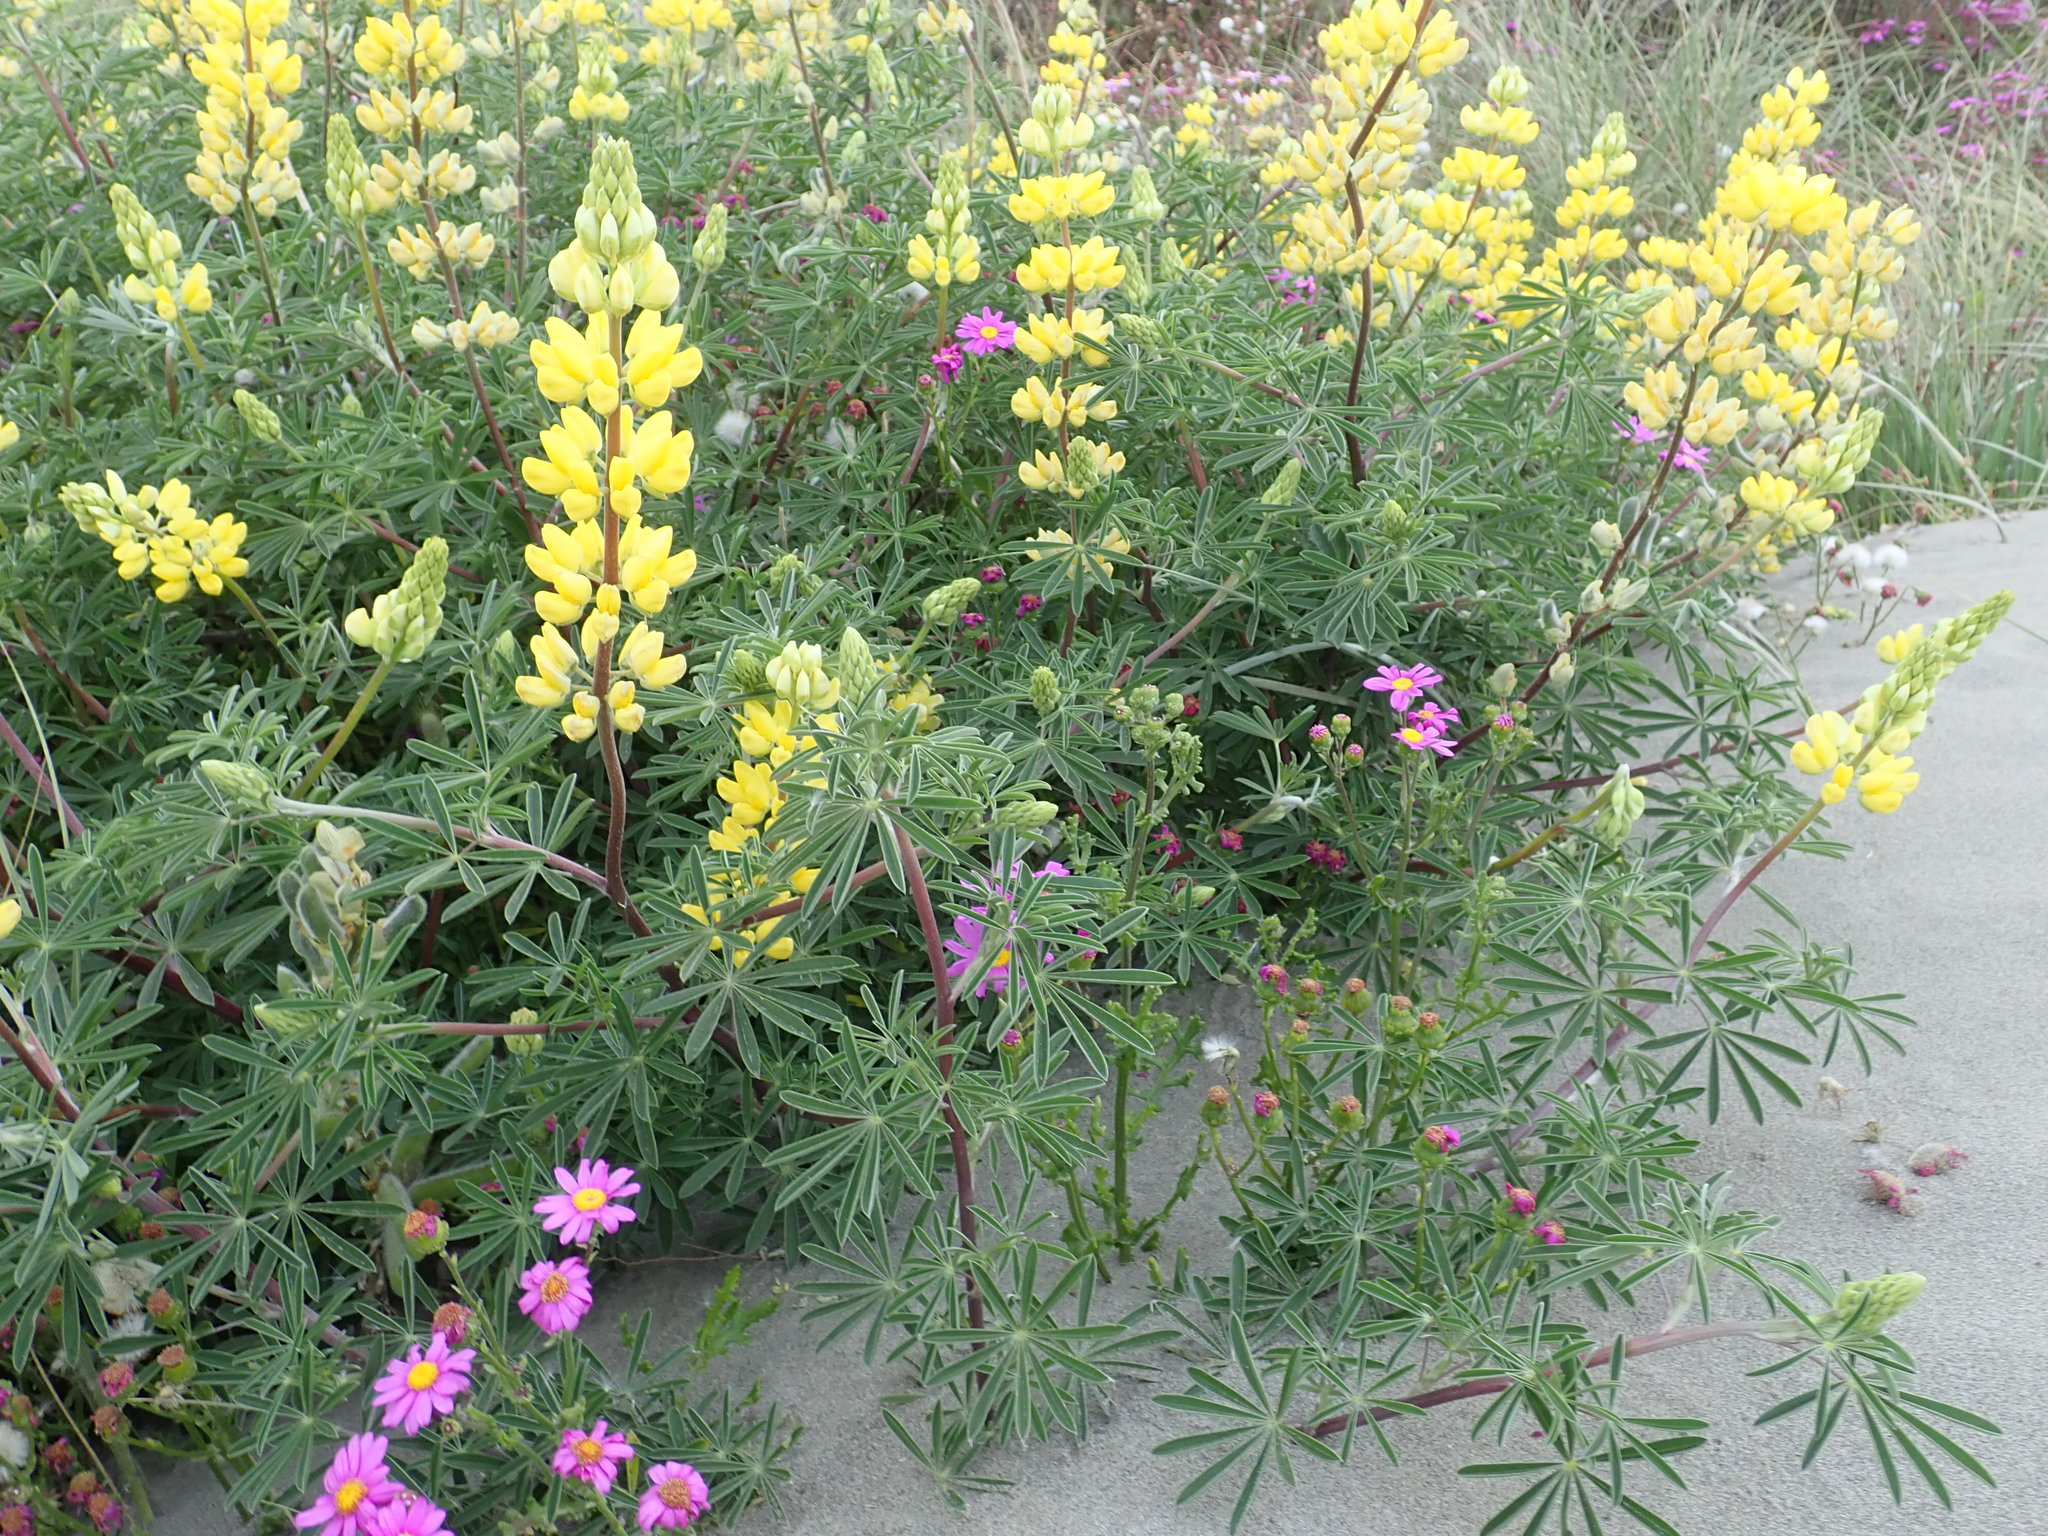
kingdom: Plantae
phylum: Tracheophyta
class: Magnoliopsida
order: Fabales
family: Fabaceae
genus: Lupinus
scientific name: Lupinus arboreus
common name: Yellow bush lupine
